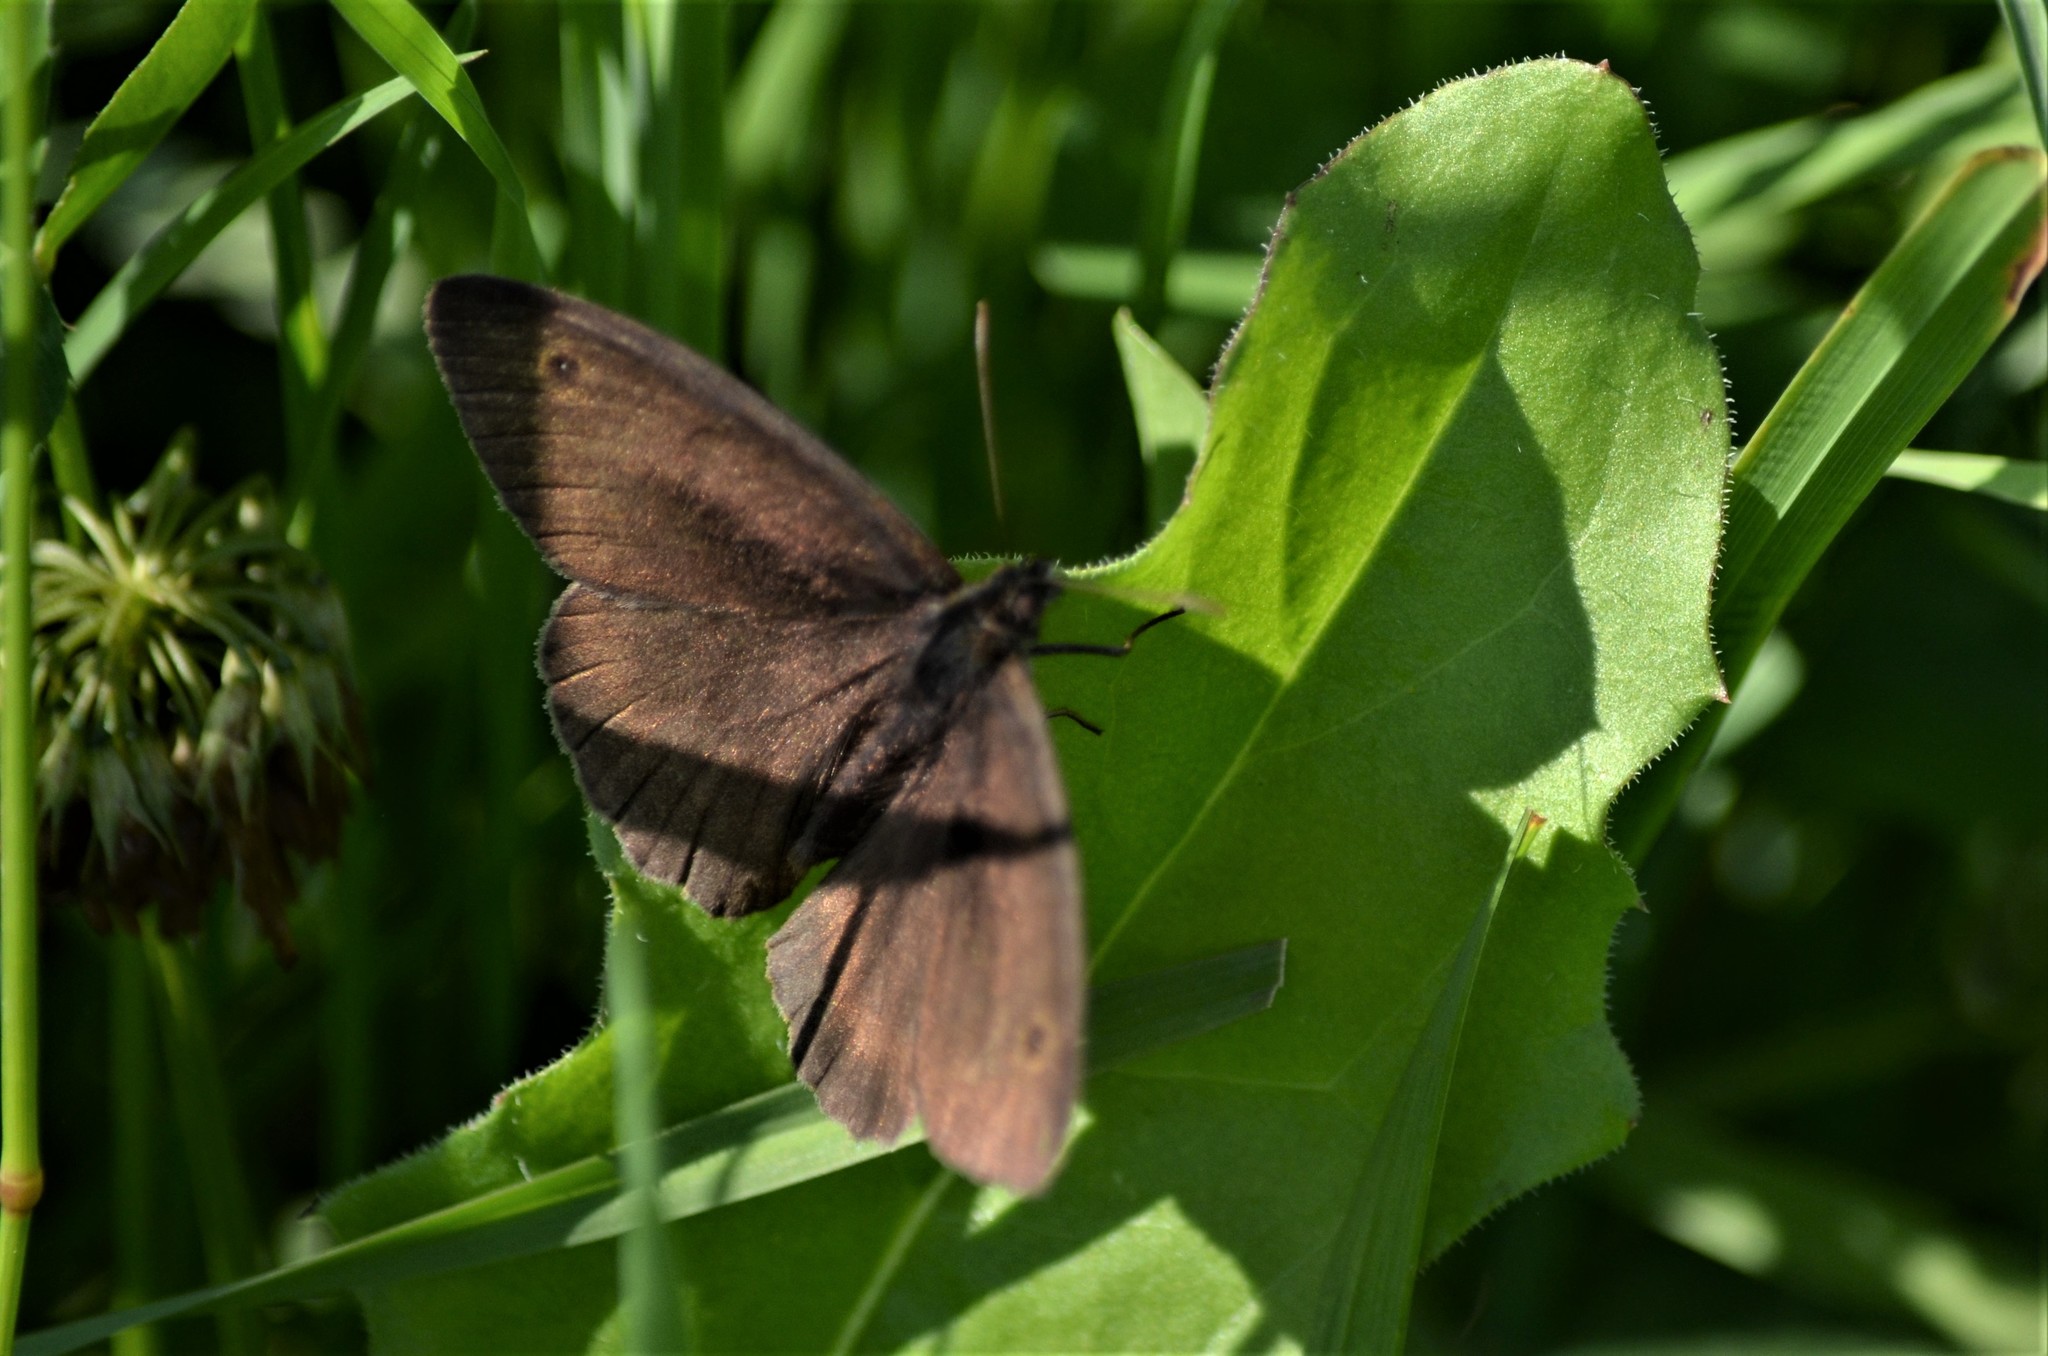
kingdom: Animalia
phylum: Arthropoda
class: Insecta
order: Lepidoptera
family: Nymphalidae
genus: Maniola
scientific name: Maniola jurtina
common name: Meadow brown
